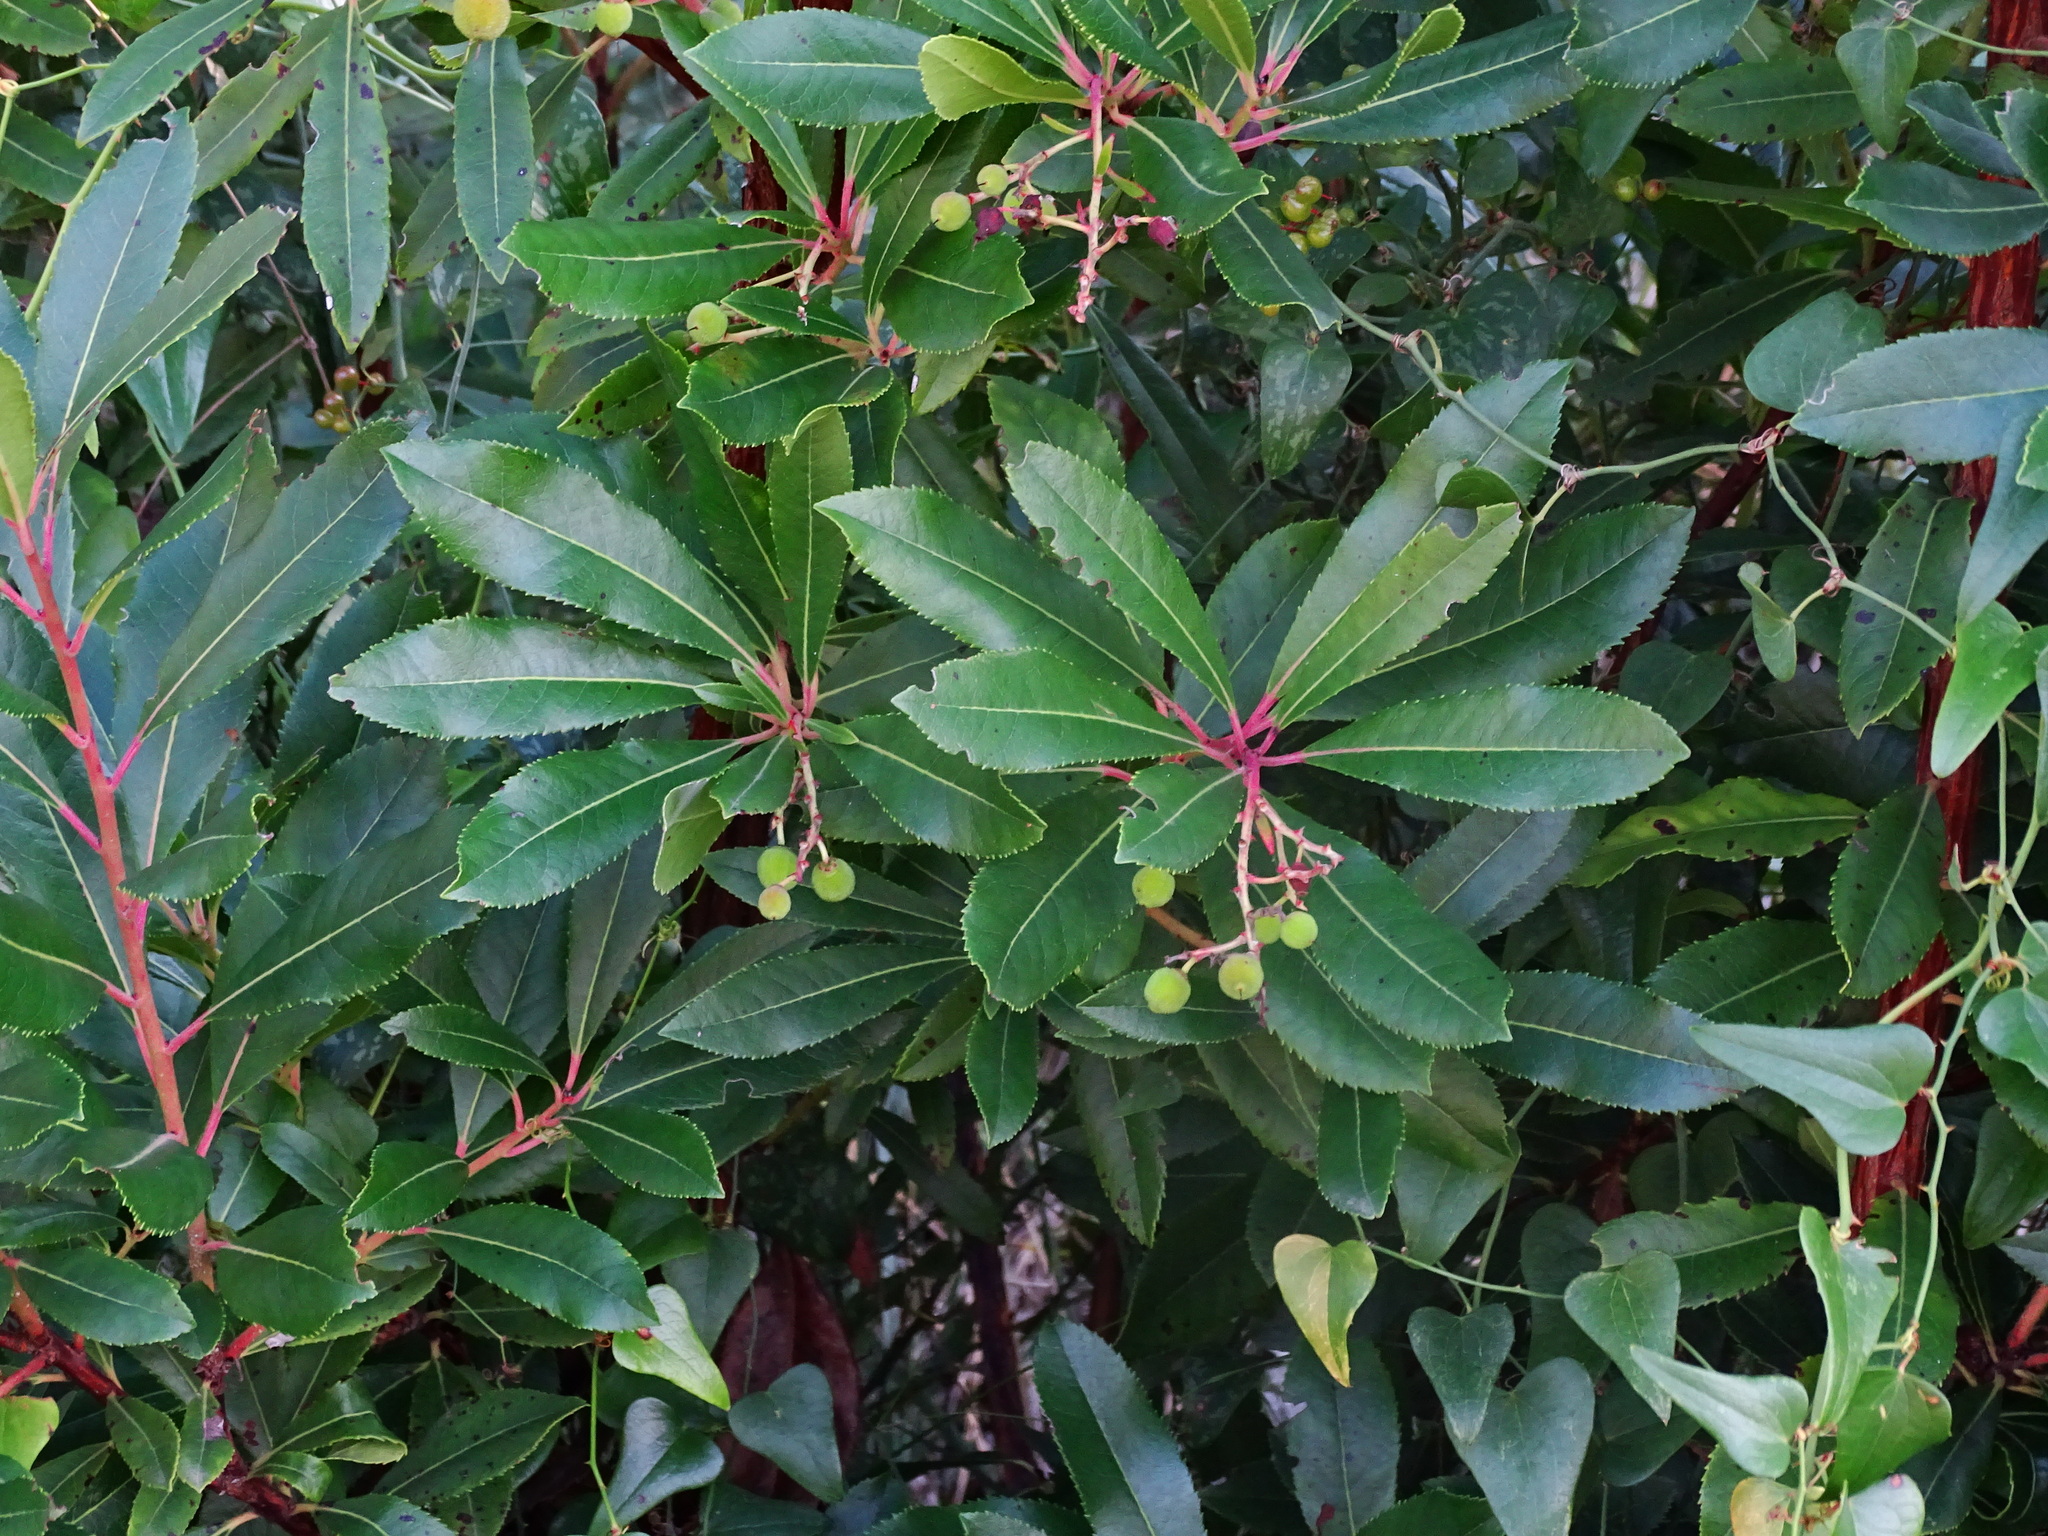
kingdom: Plantae
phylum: Tracheophyta
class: Magnoliopsida
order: Ericales
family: Ericaceae
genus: Arbutus
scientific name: Arbutus unedo
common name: Strawberry-tree
